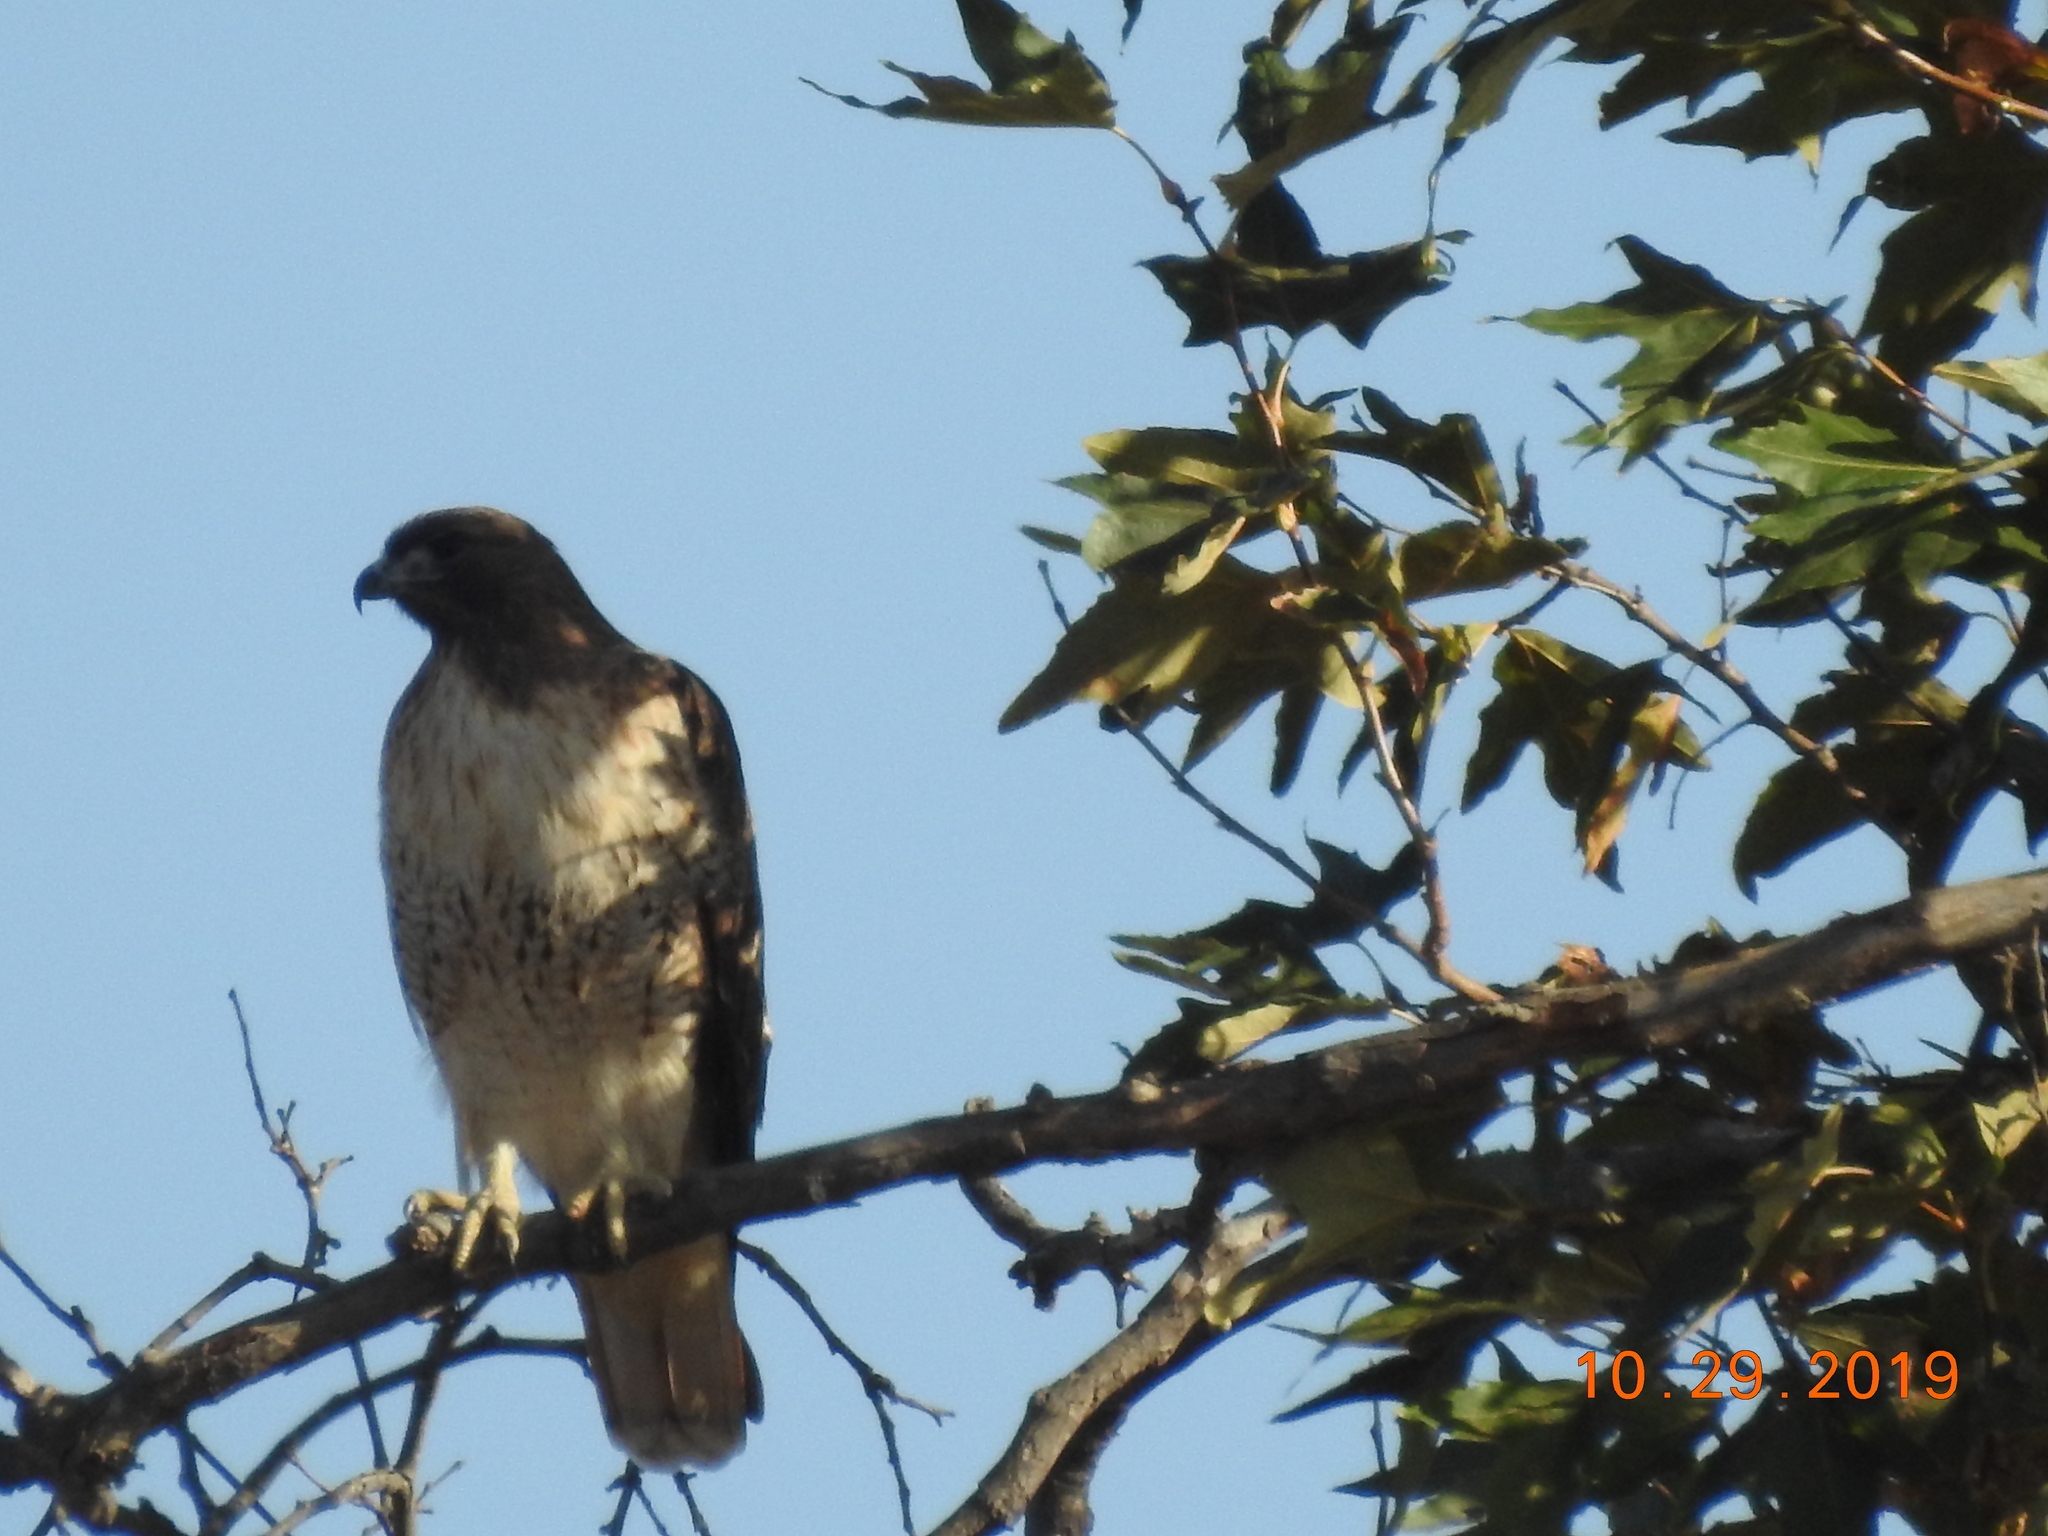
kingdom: Animalia
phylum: Chordata
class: Aves
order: Accipitriformes
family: Accipitridae
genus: Buteo
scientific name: Buteo jamaicensis
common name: Red-tailed hawk
